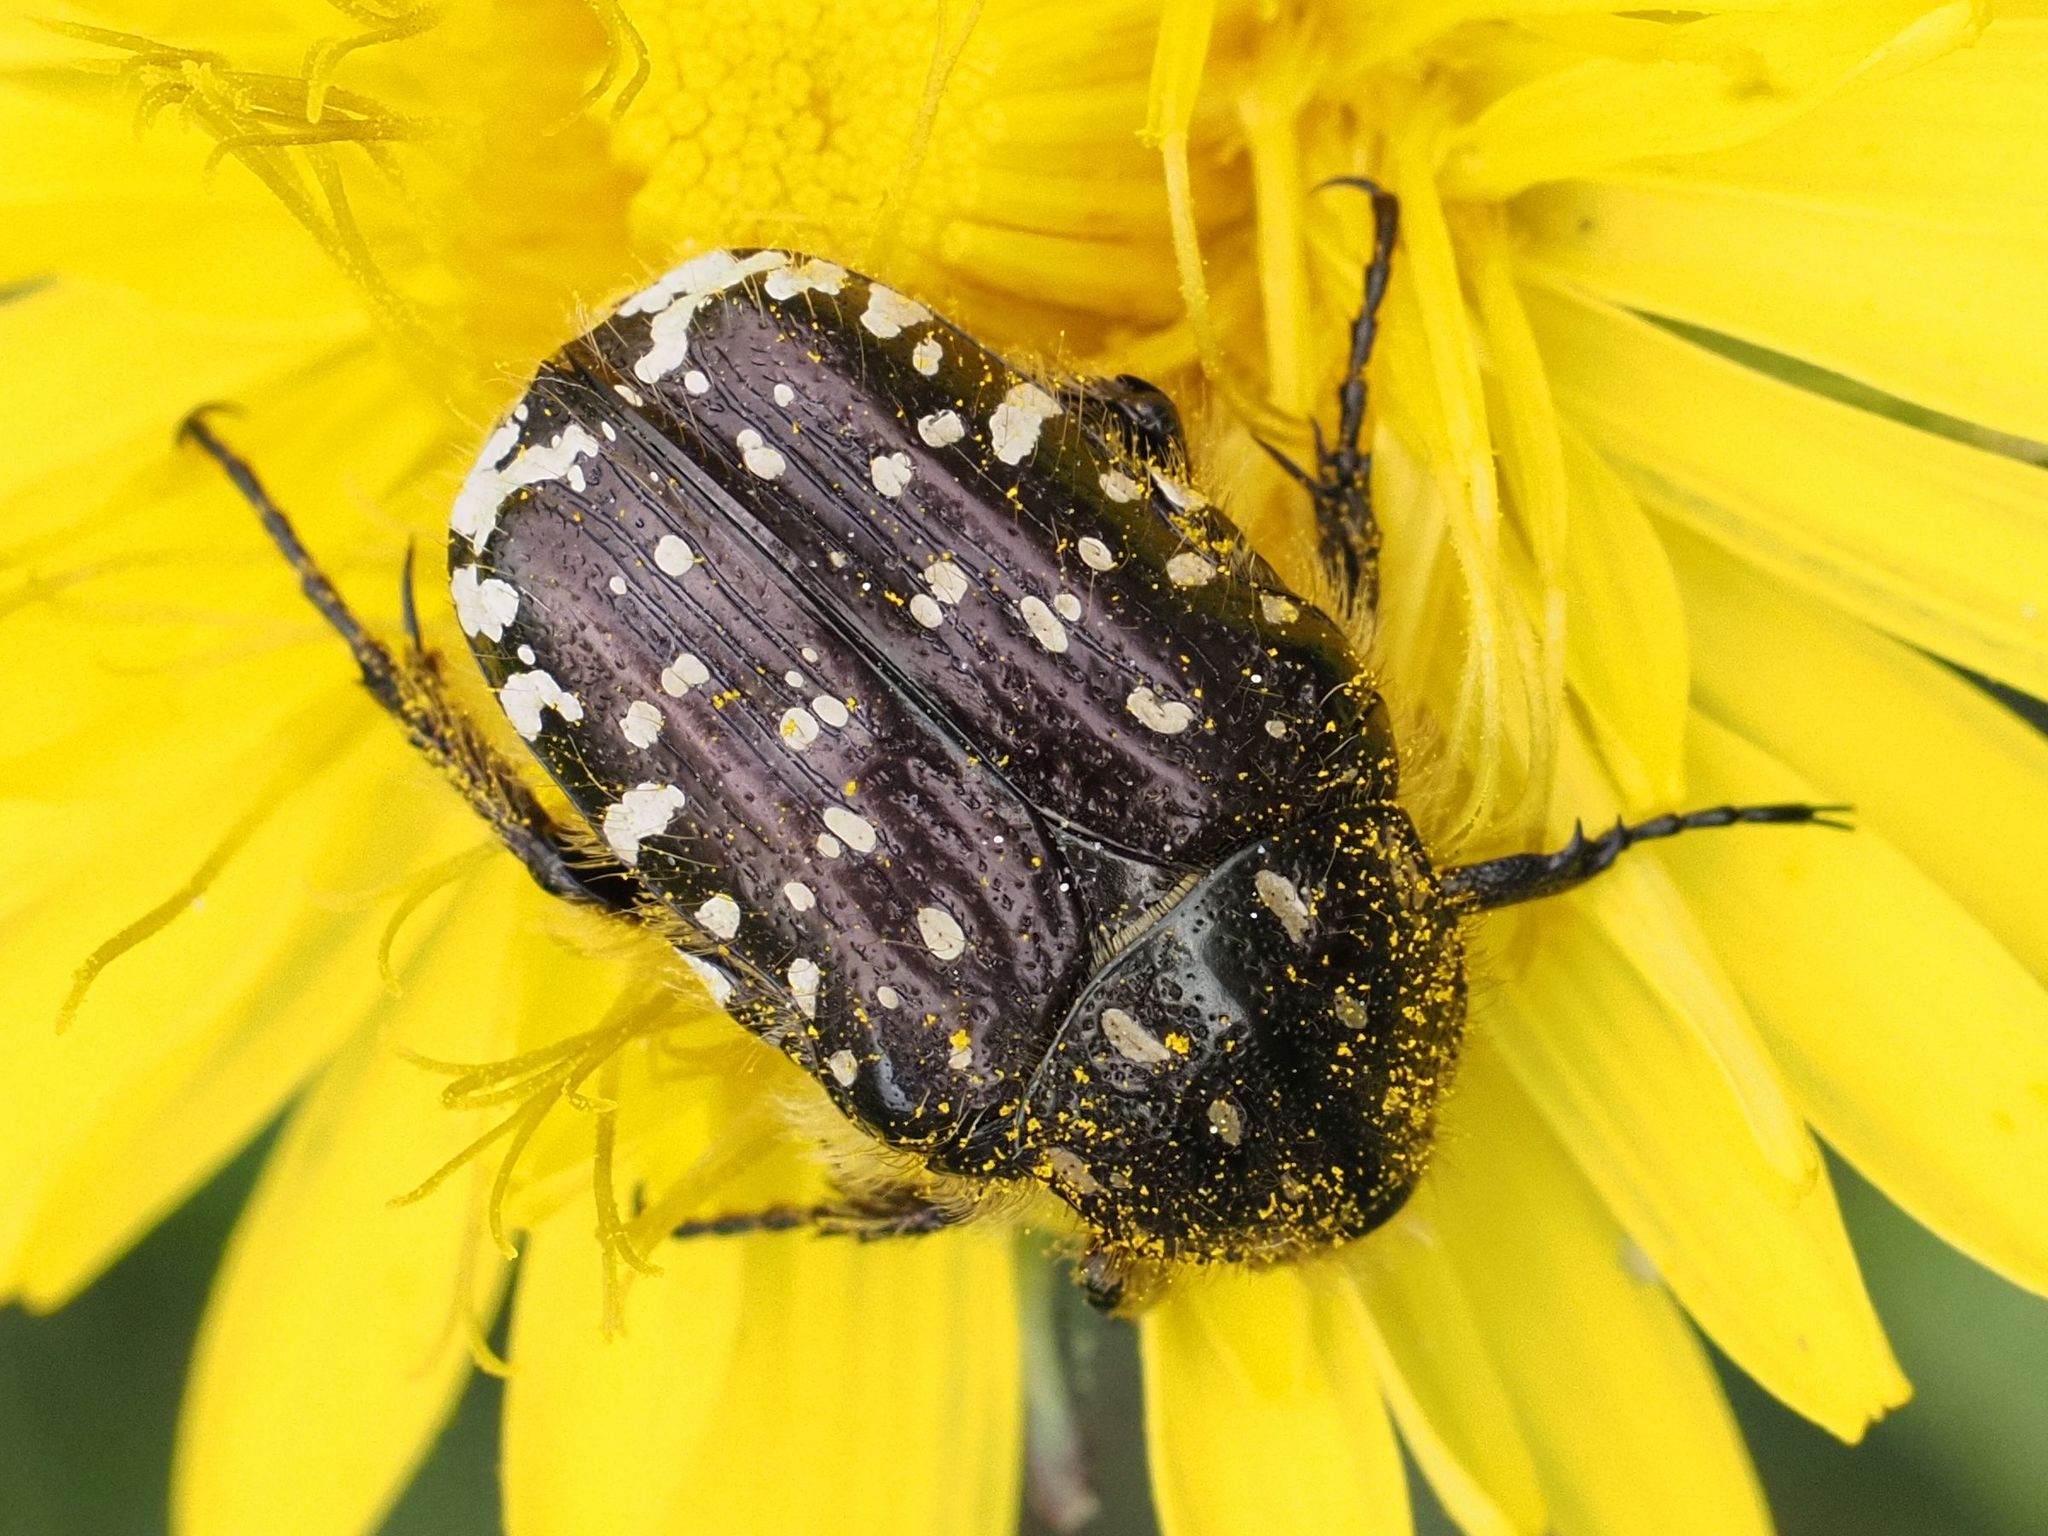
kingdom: Animalia
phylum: Arthropoda
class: Insecta
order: Coleoptera
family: Scarabaeidae
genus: Oxythyrea
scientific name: Oxythyrea funesta
